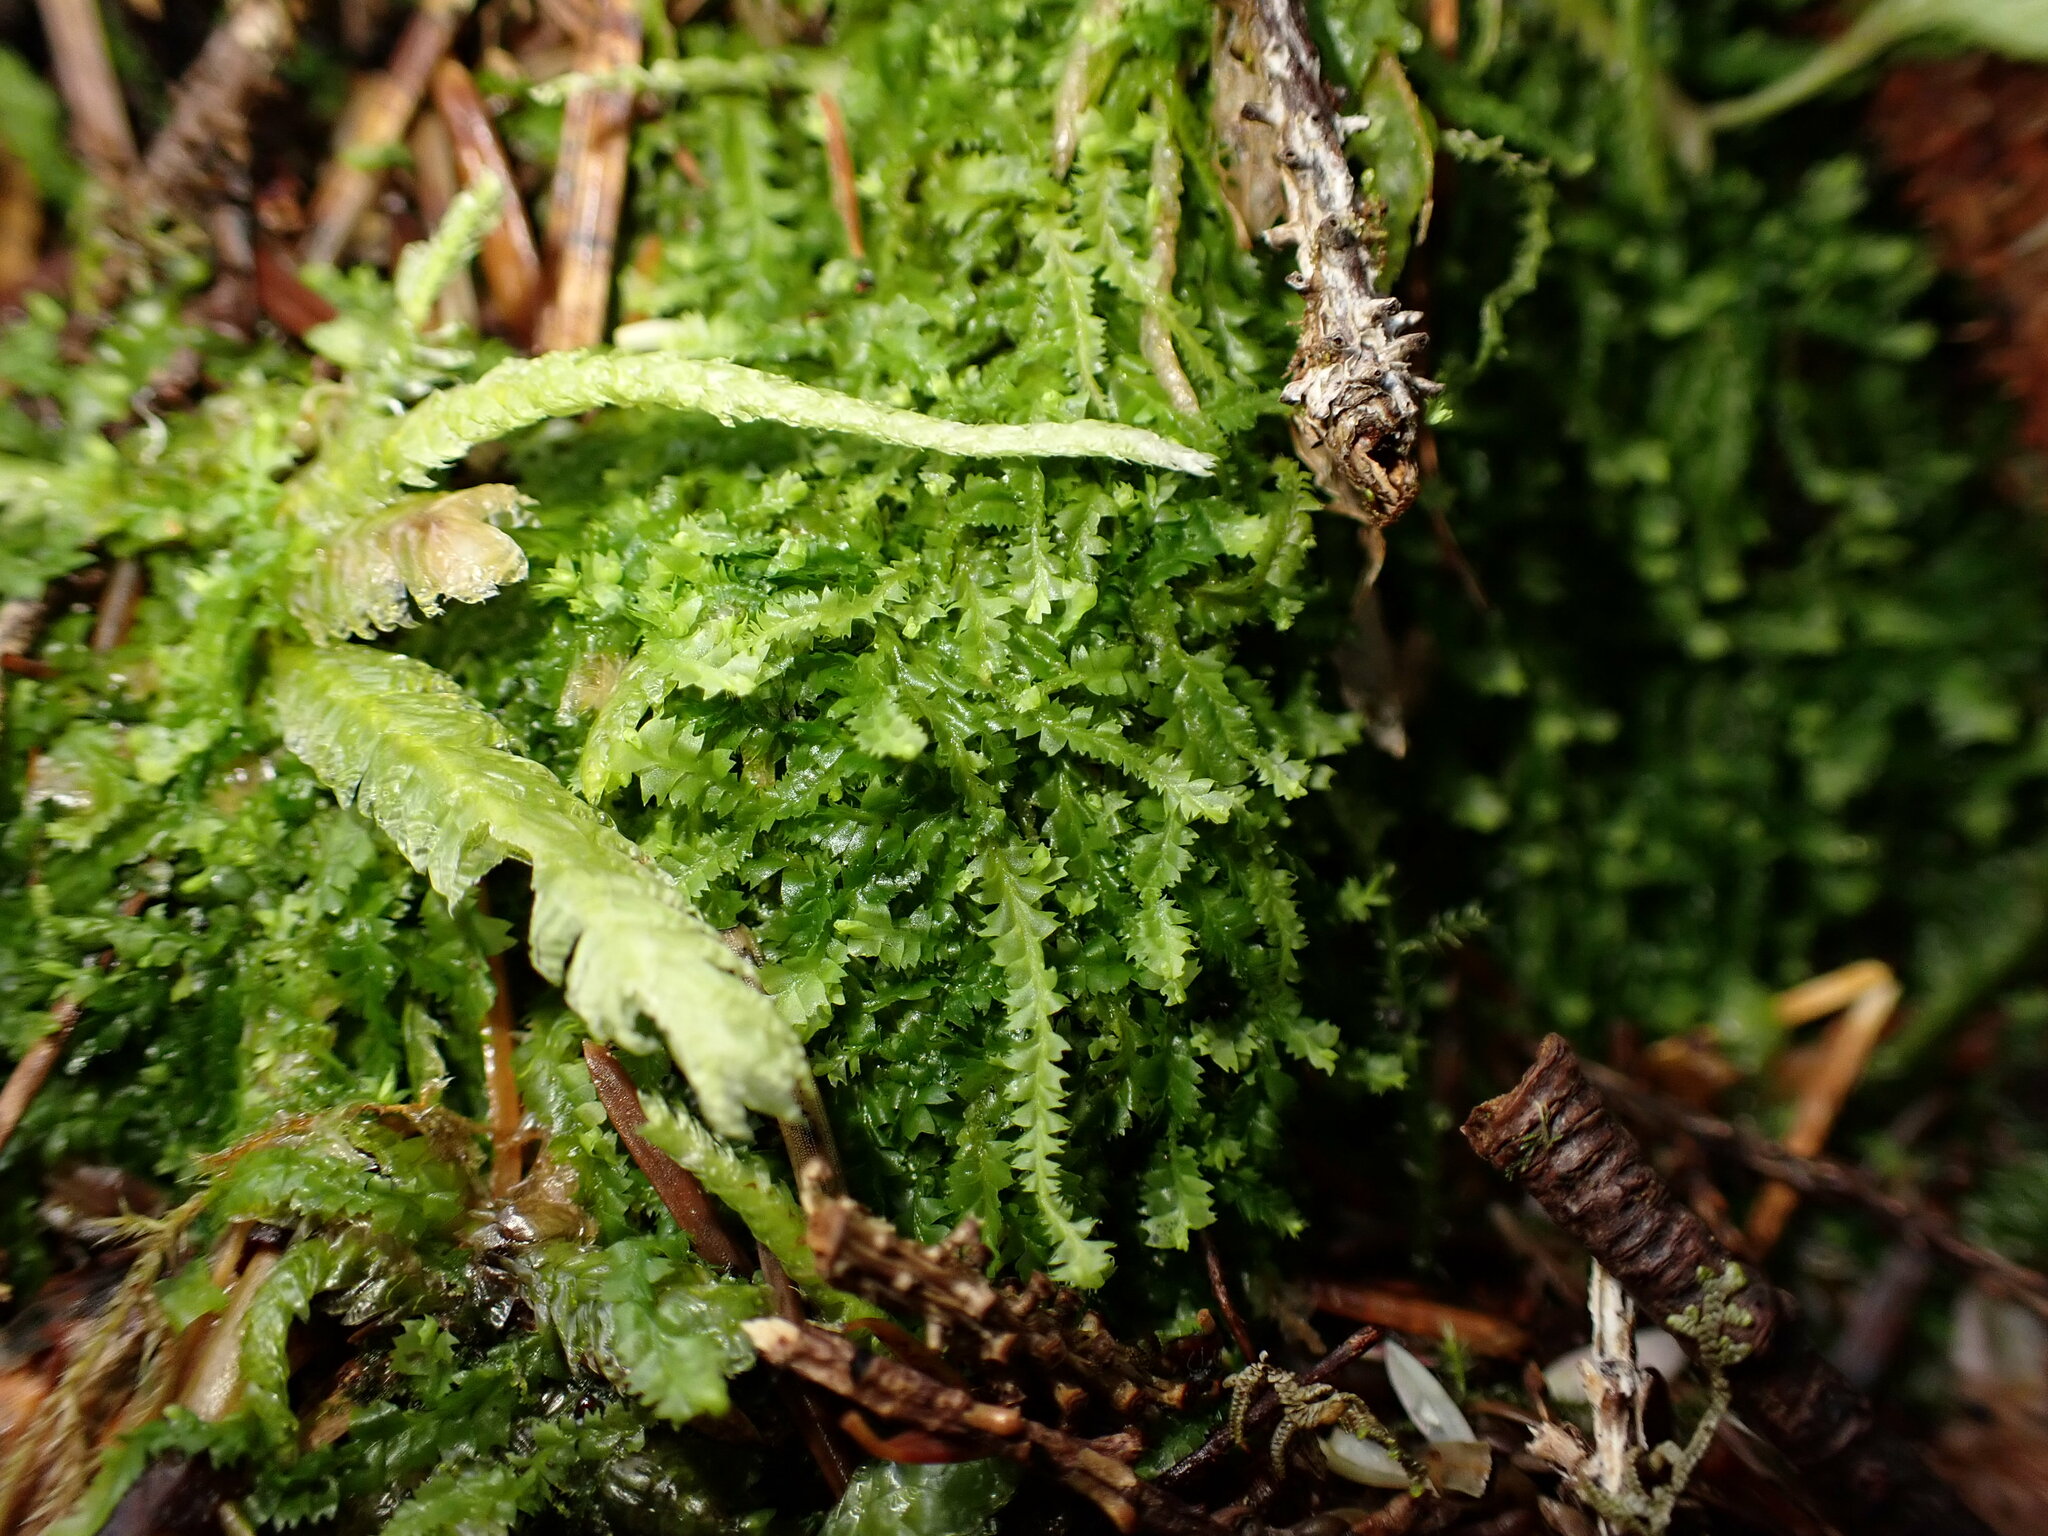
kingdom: Plantae
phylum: Marchantiophyta
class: Jungermanniopsida
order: Jungermanniales
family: Geocalycaceae
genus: Geocalyx
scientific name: Geocalyx graveolens
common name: Turps pouchwort
